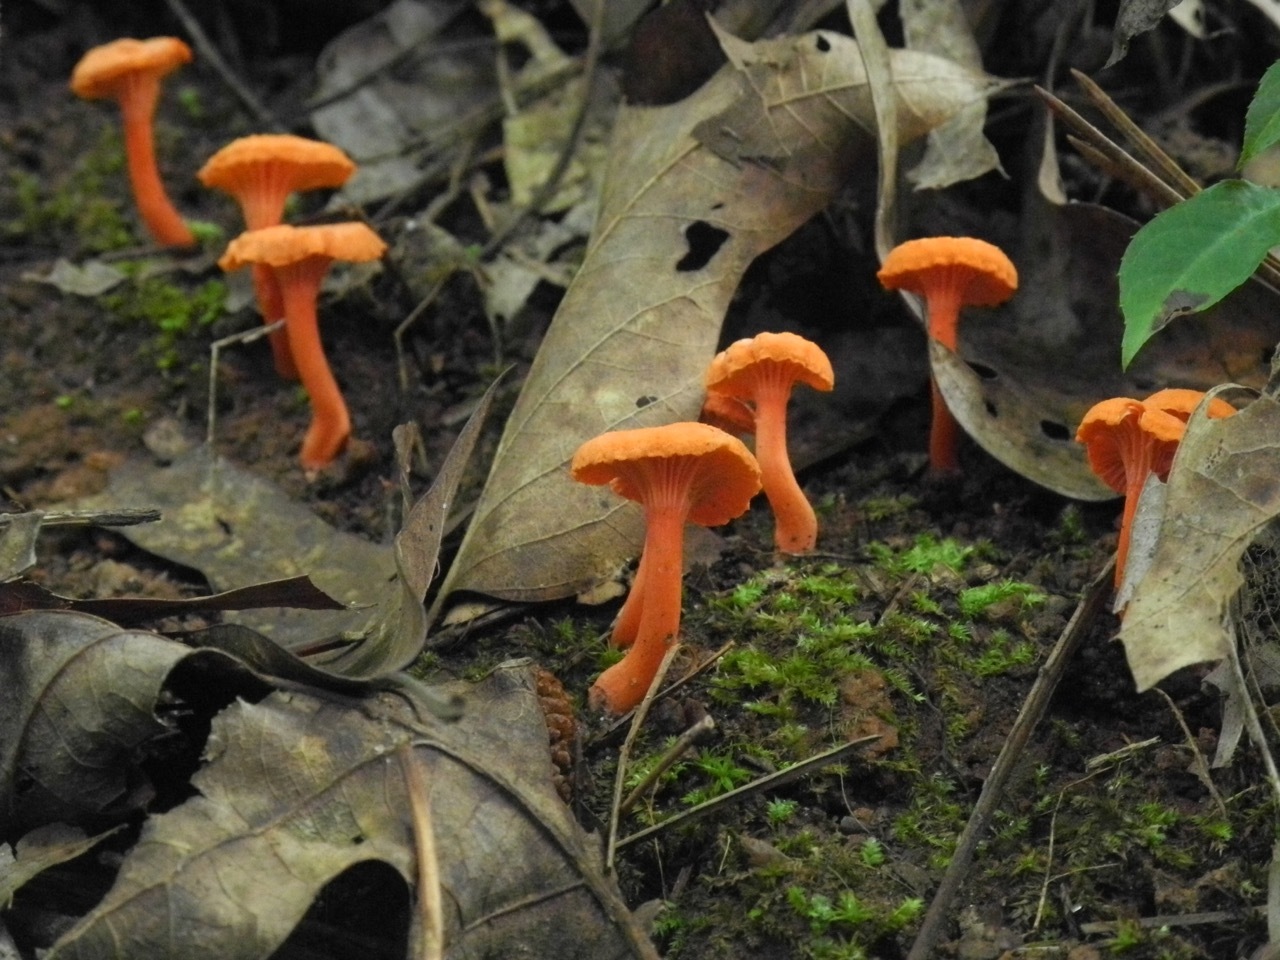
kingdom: Fungi
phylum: Basidiomycota
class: Agaricomycetes
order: Cantharellales
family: Hydnaceae
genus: Cantharellus
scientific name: Cantharellus cinnabarinus
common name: Cinnabar chanterelle
